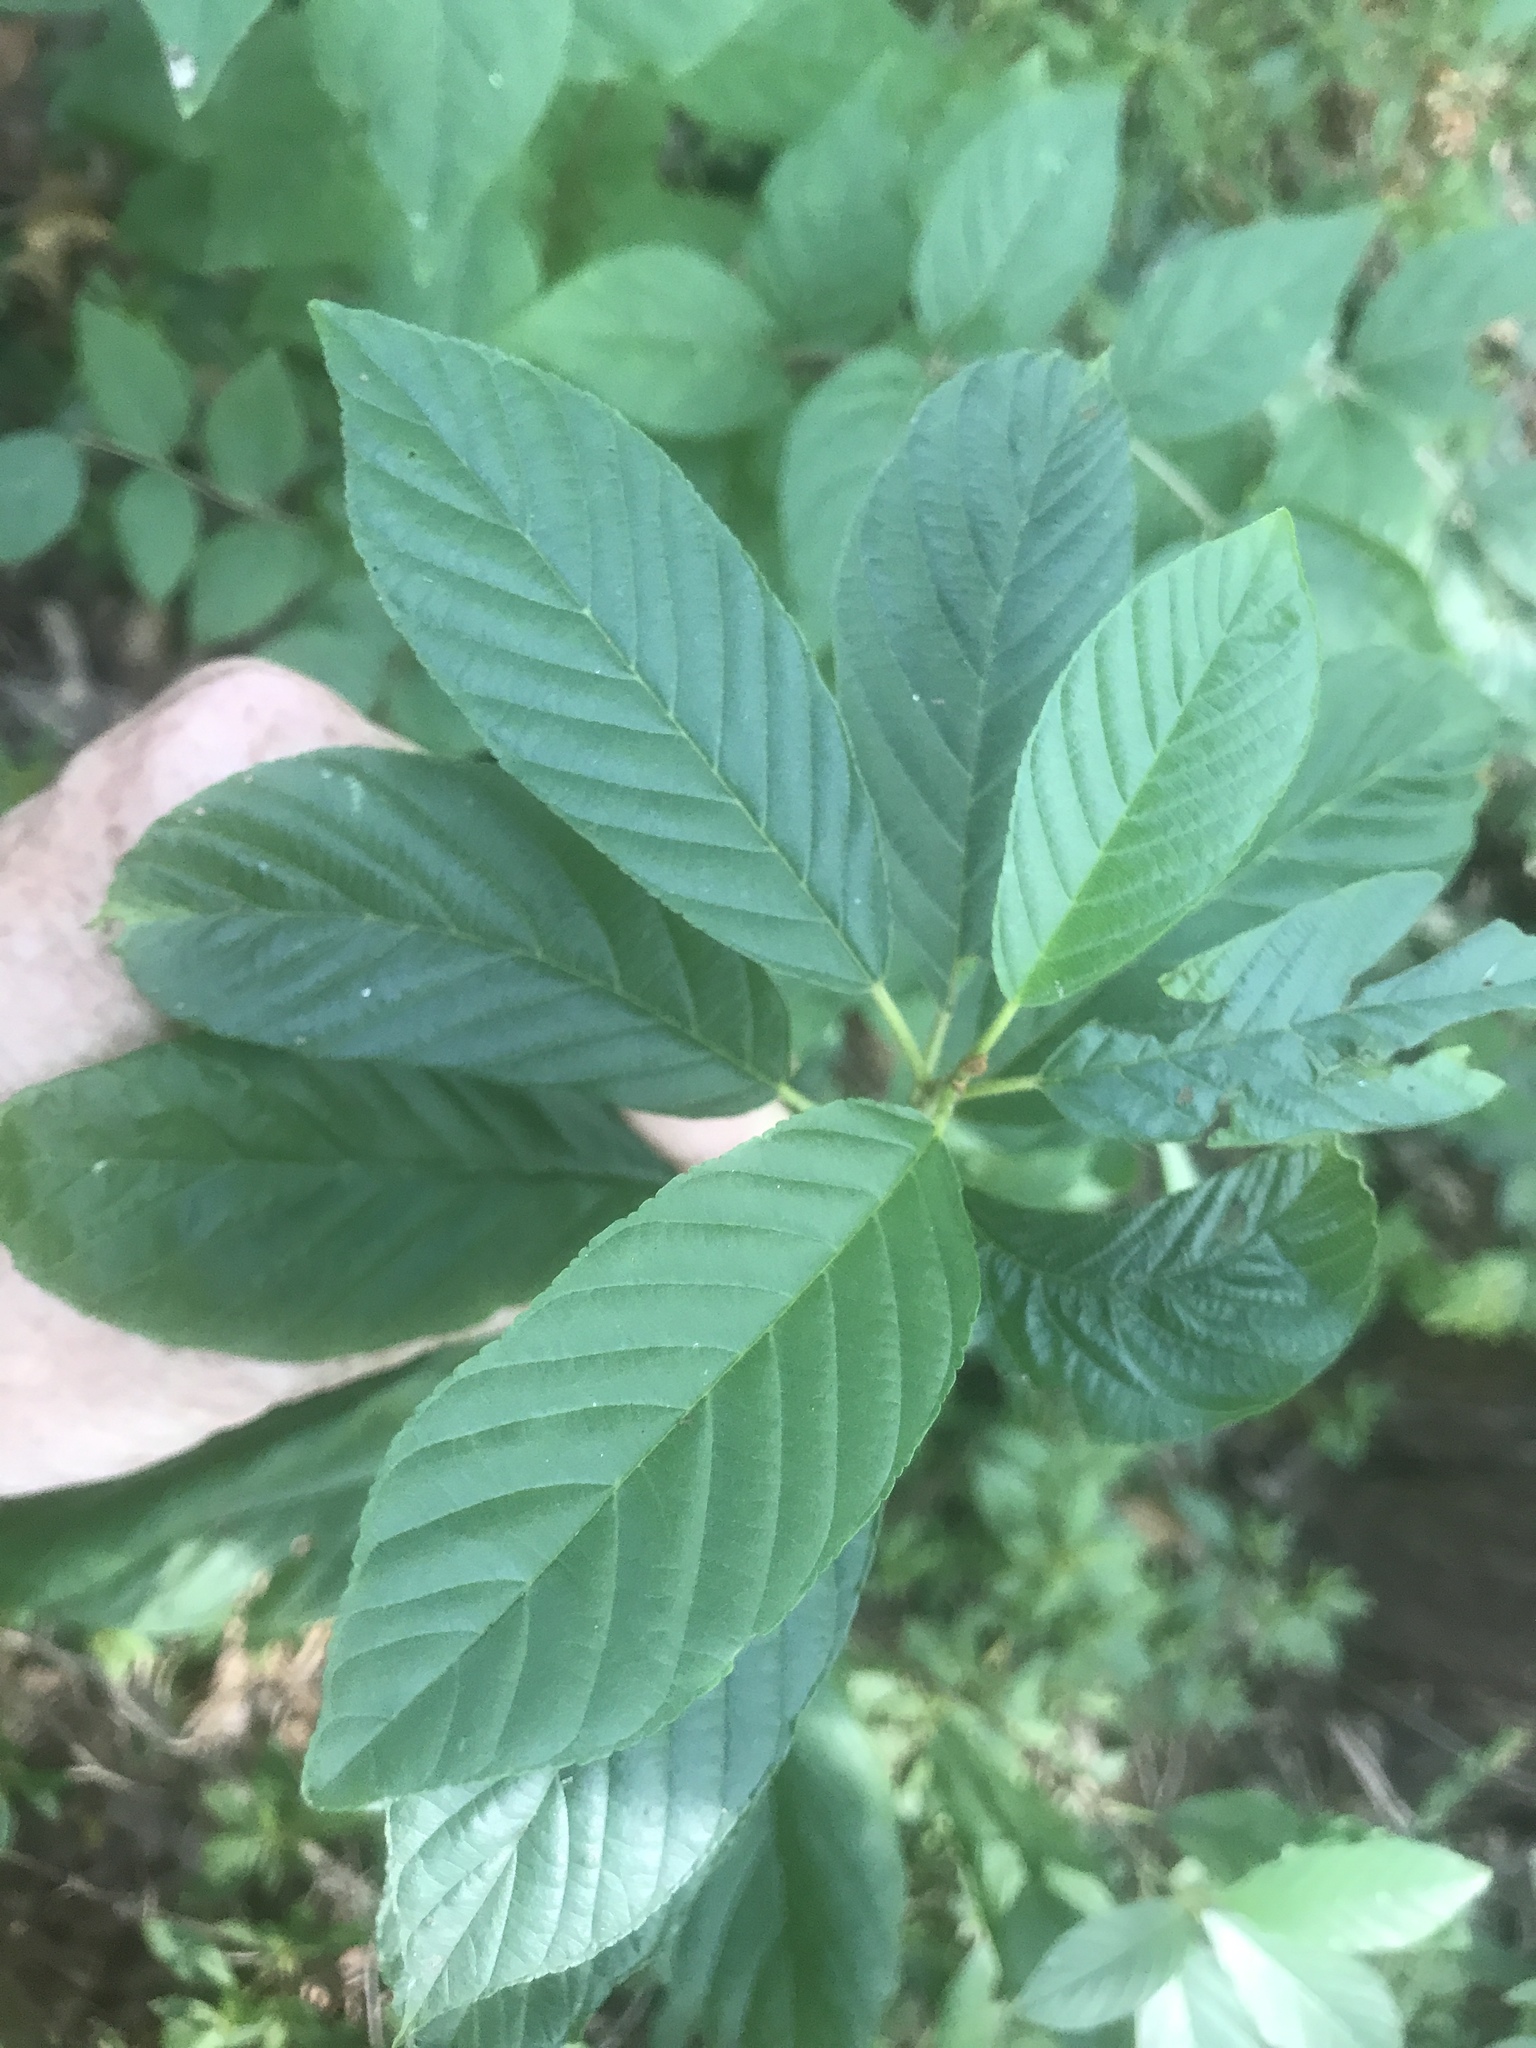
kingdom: Plantae
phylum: Tracheophyta
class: Magnoliopsida
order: Rosales
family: Rhamnaceae
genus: Frangula
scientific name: Frangula caroliniana
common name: Carolina buckthorn
